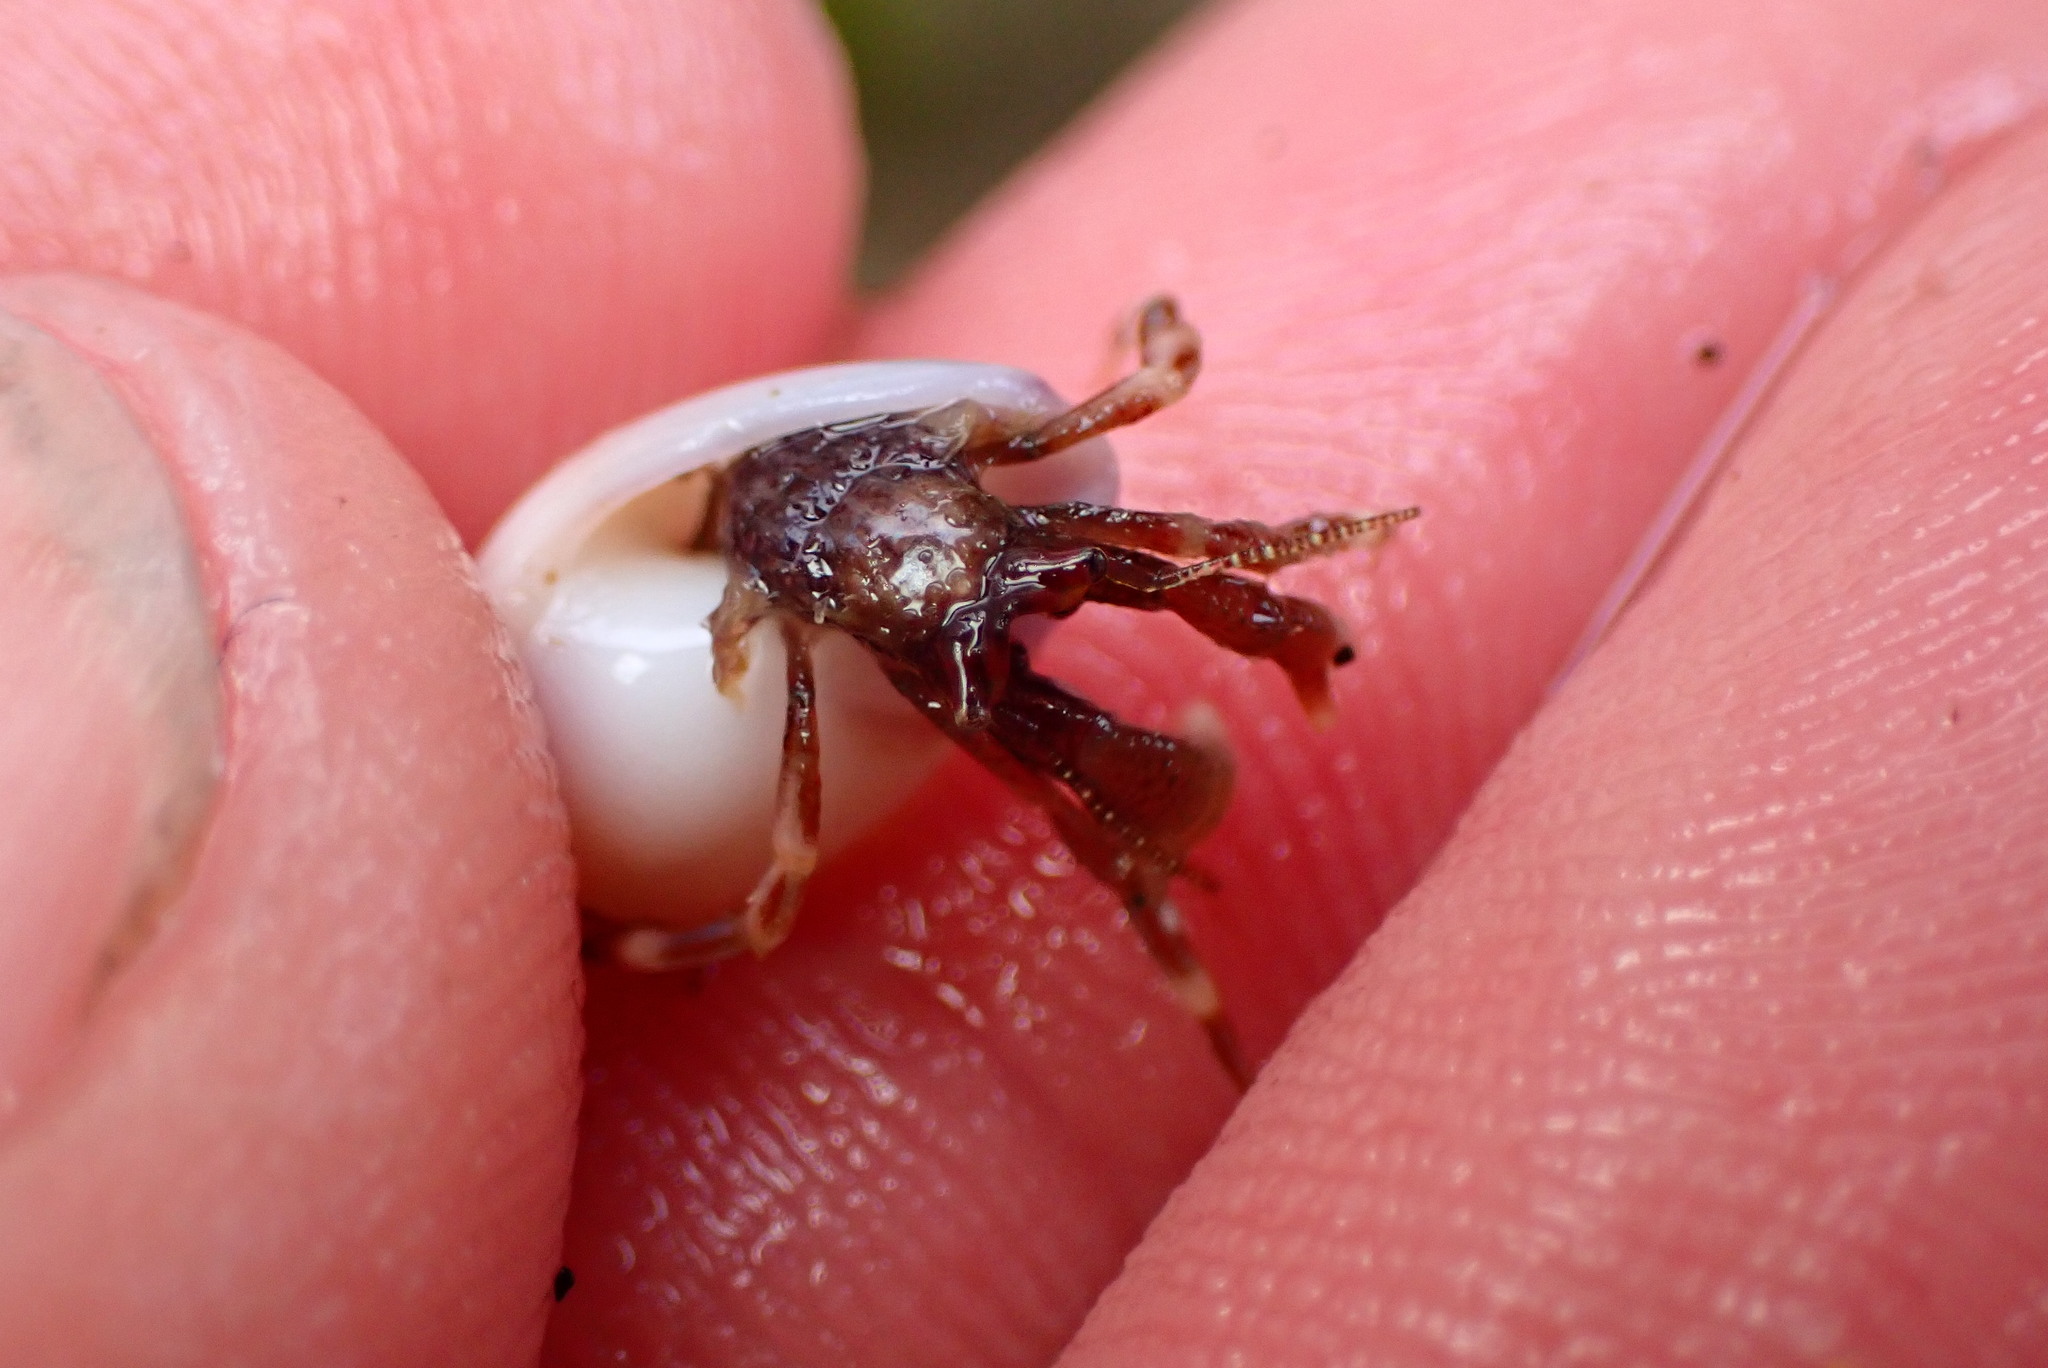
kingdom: Animalia
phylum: Arthropoda
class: Malacostraca
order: Decapoda
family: Paguridae
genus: Pagurus
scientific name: Pagurus venturensis
